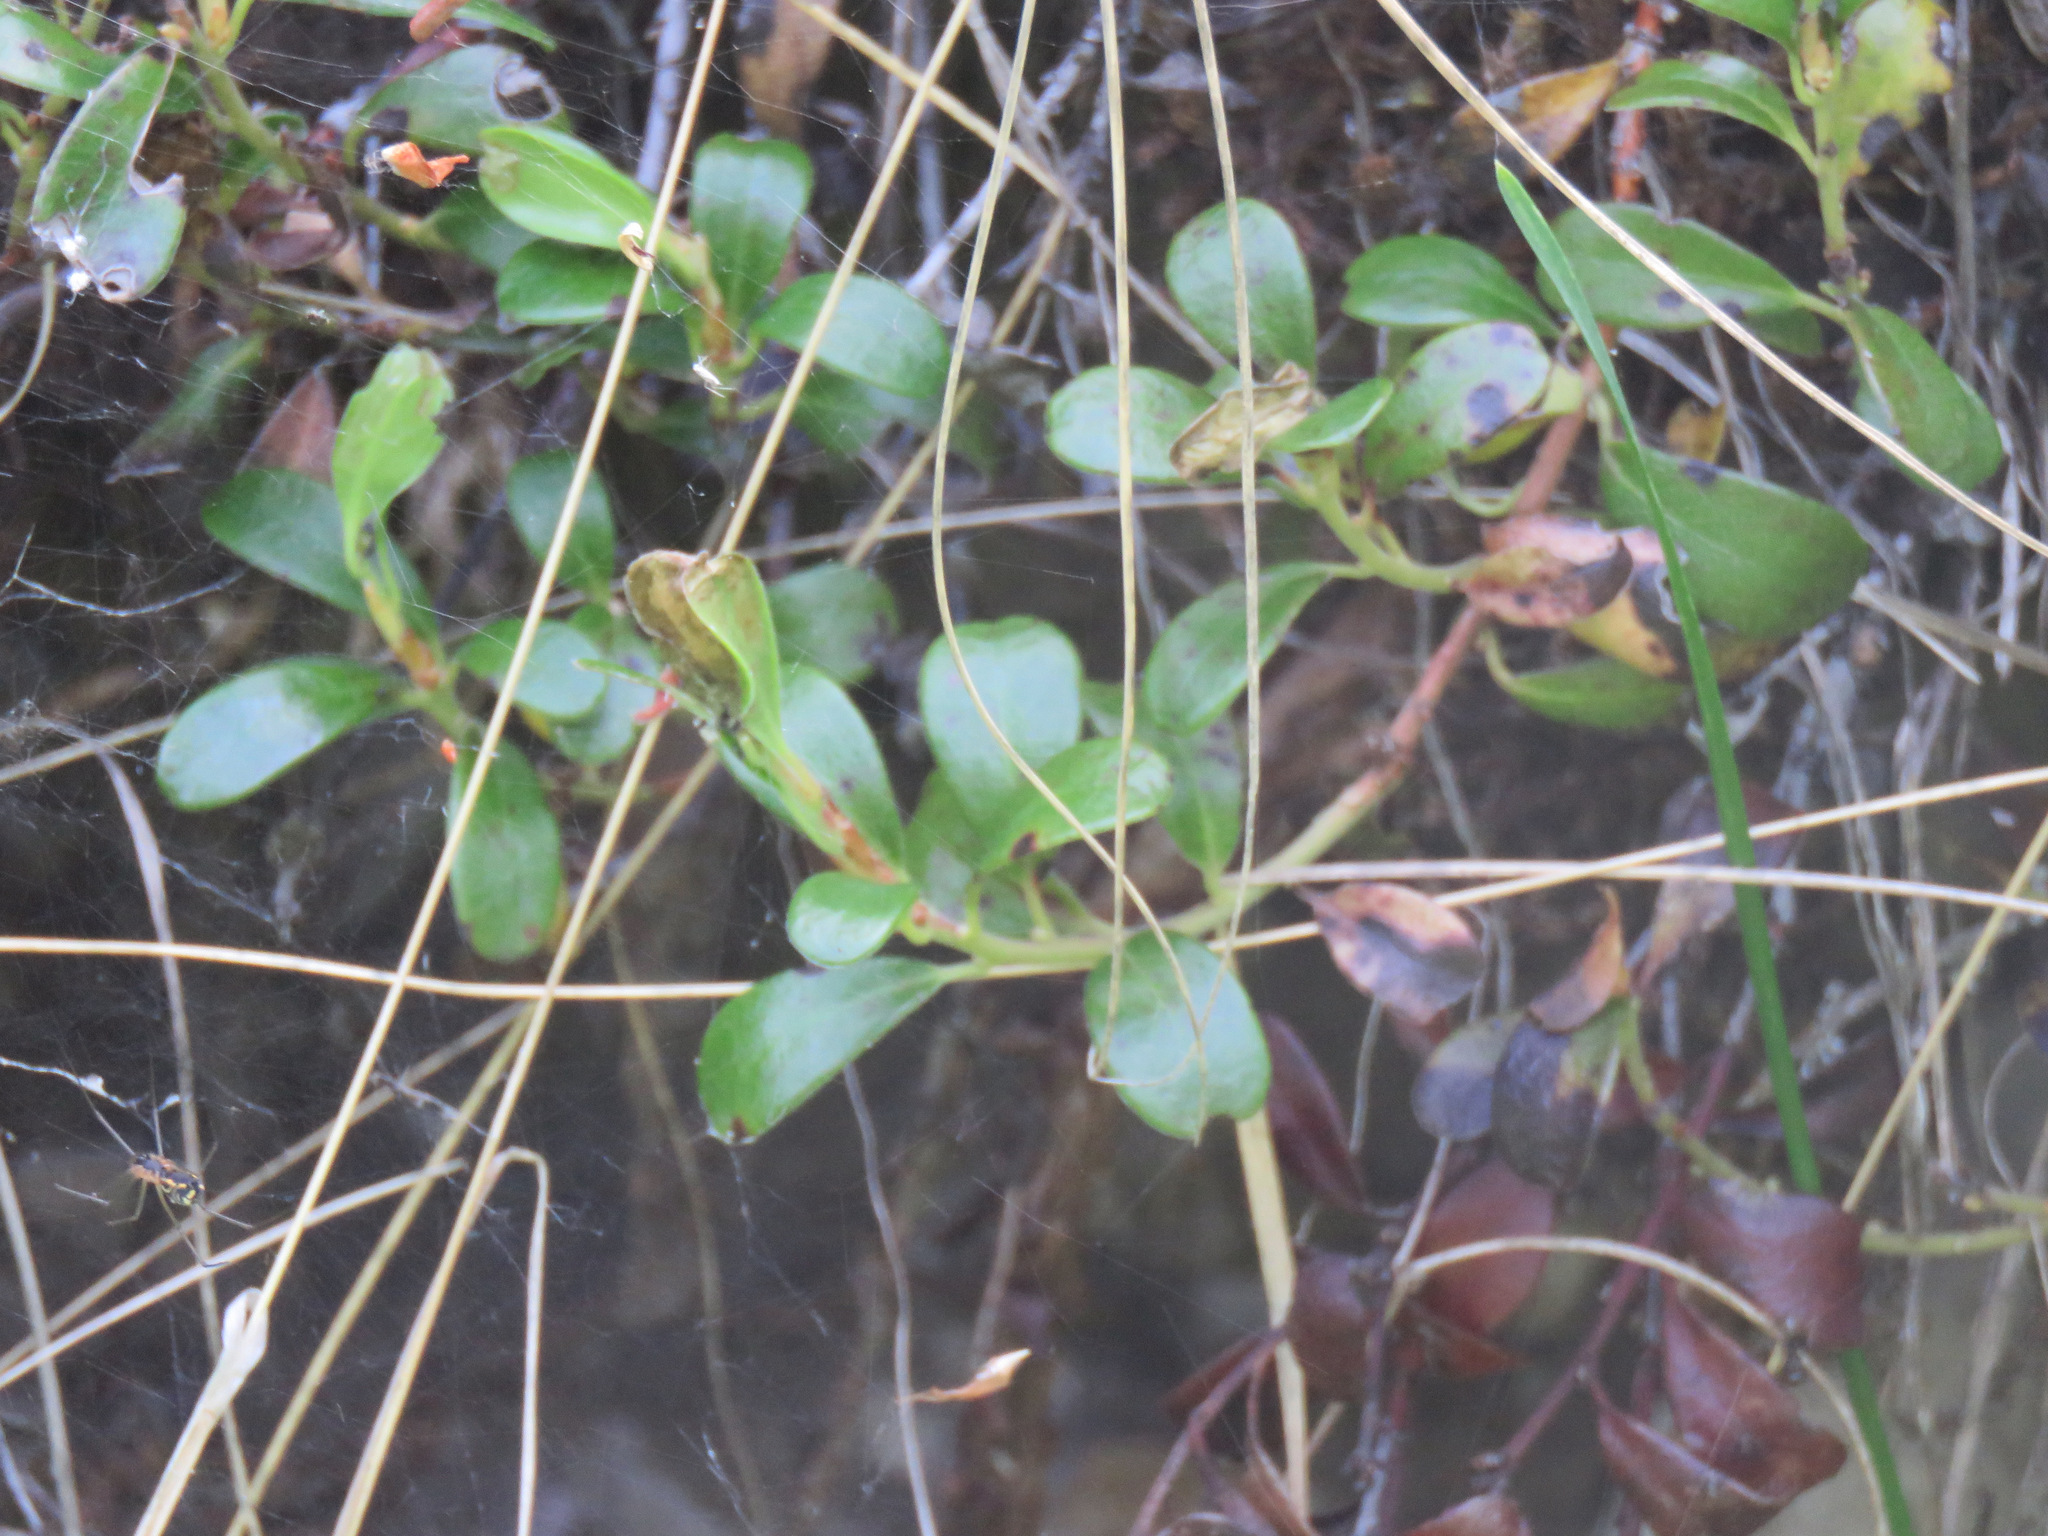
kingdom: Plantae
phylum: Tracheophyta
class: Magnoliopsida
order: Ericales
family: Ericaceae
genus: Arctostaphylos
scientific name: Arctostaphylos uva-ursi
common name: Bearberry
